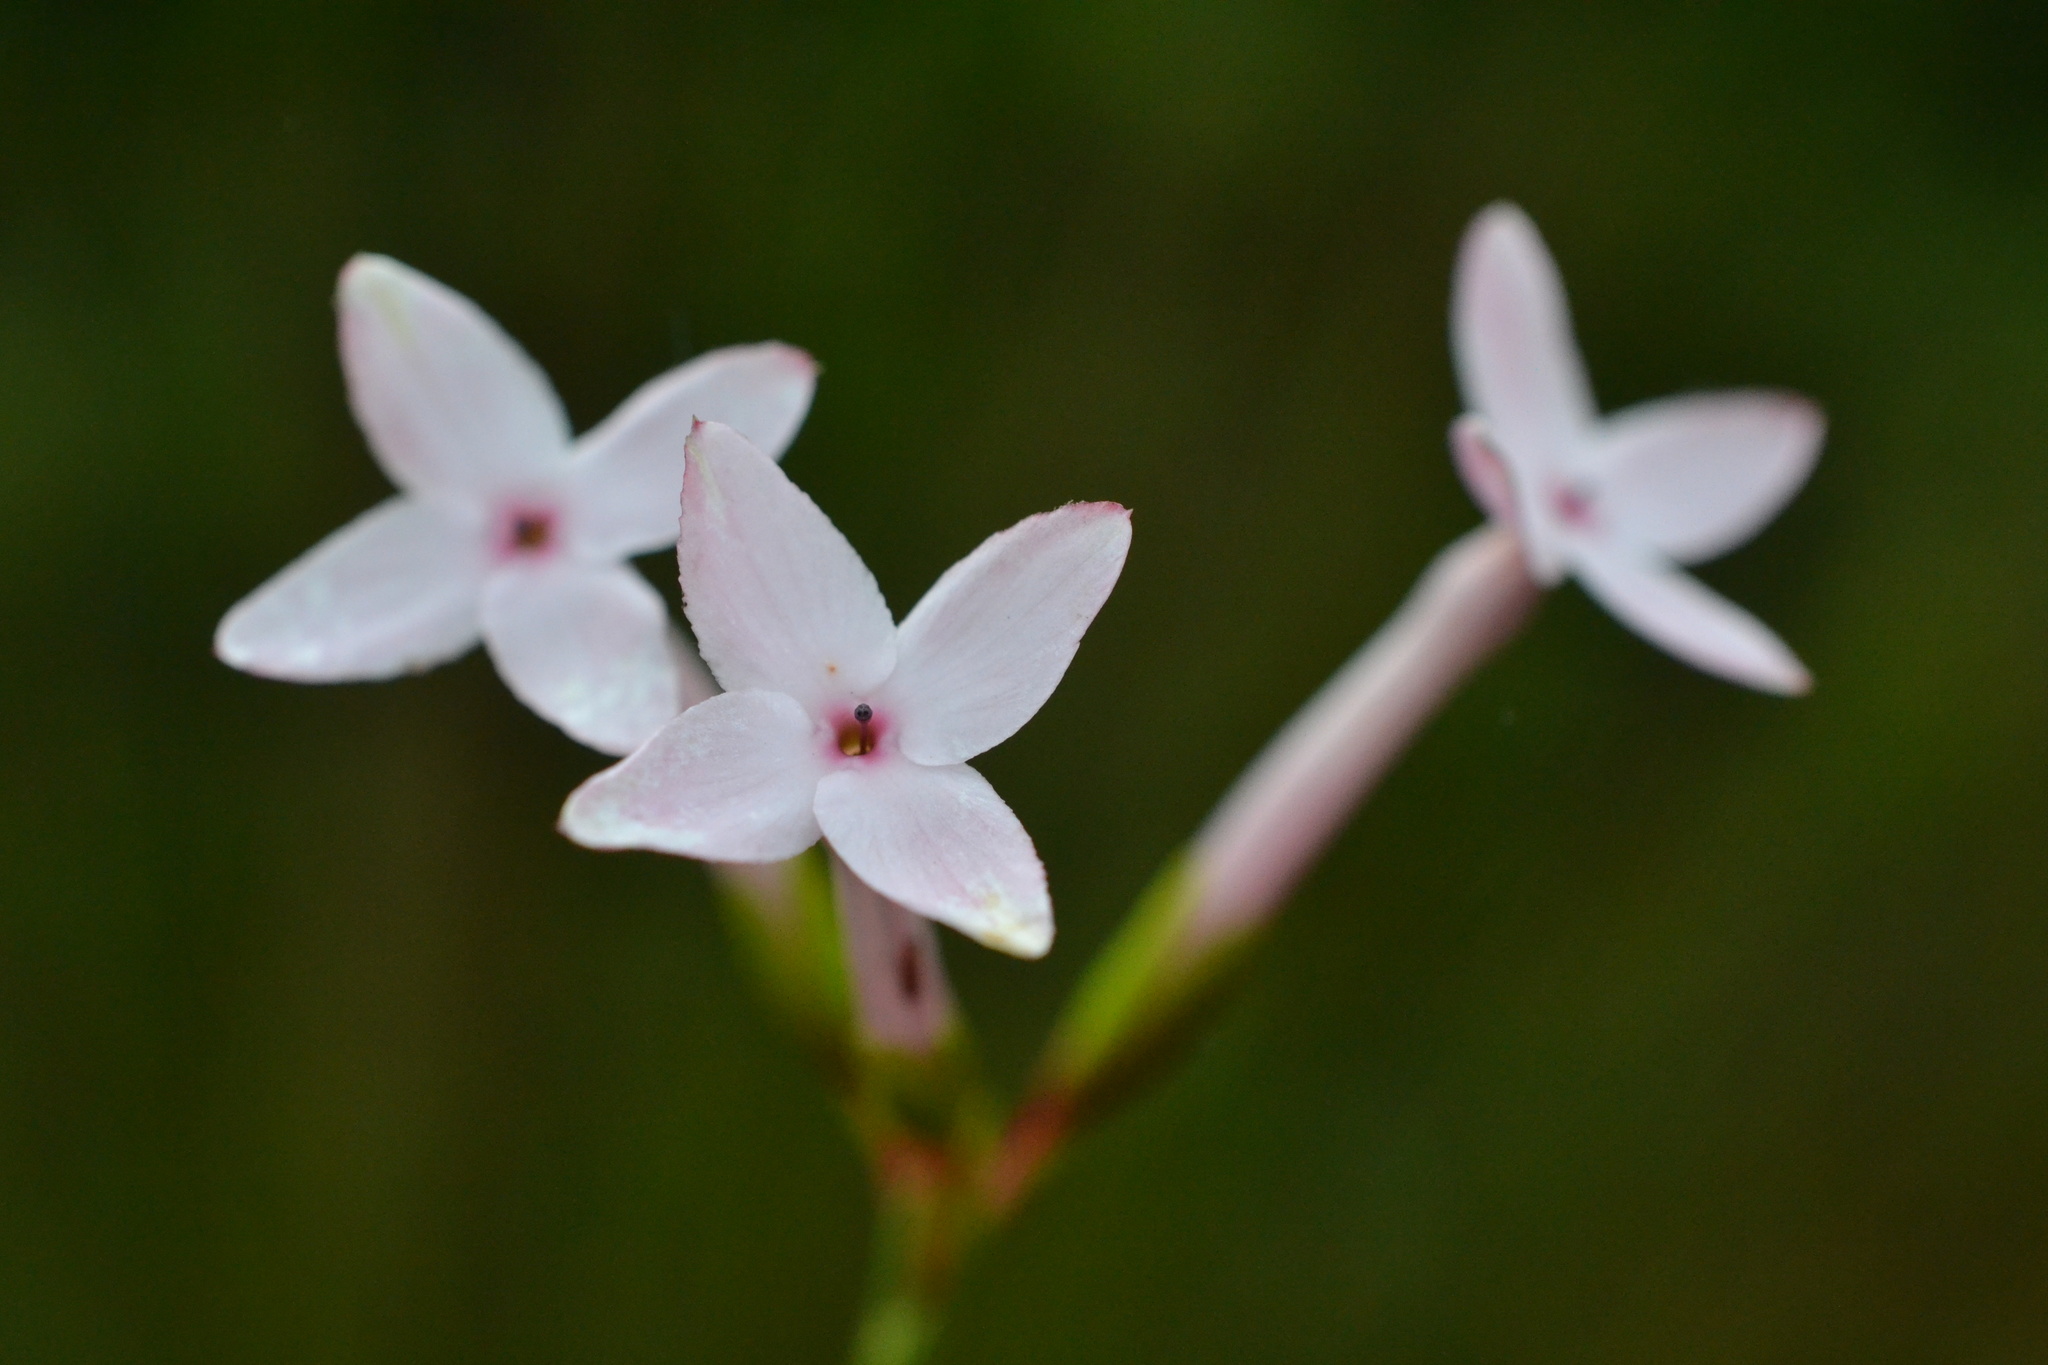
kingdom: Plantae
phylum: Tracheophyta
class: Magnoliopsida
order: Ericales
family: Ericaceae
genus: Erica
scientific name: Erica jasminiflora
